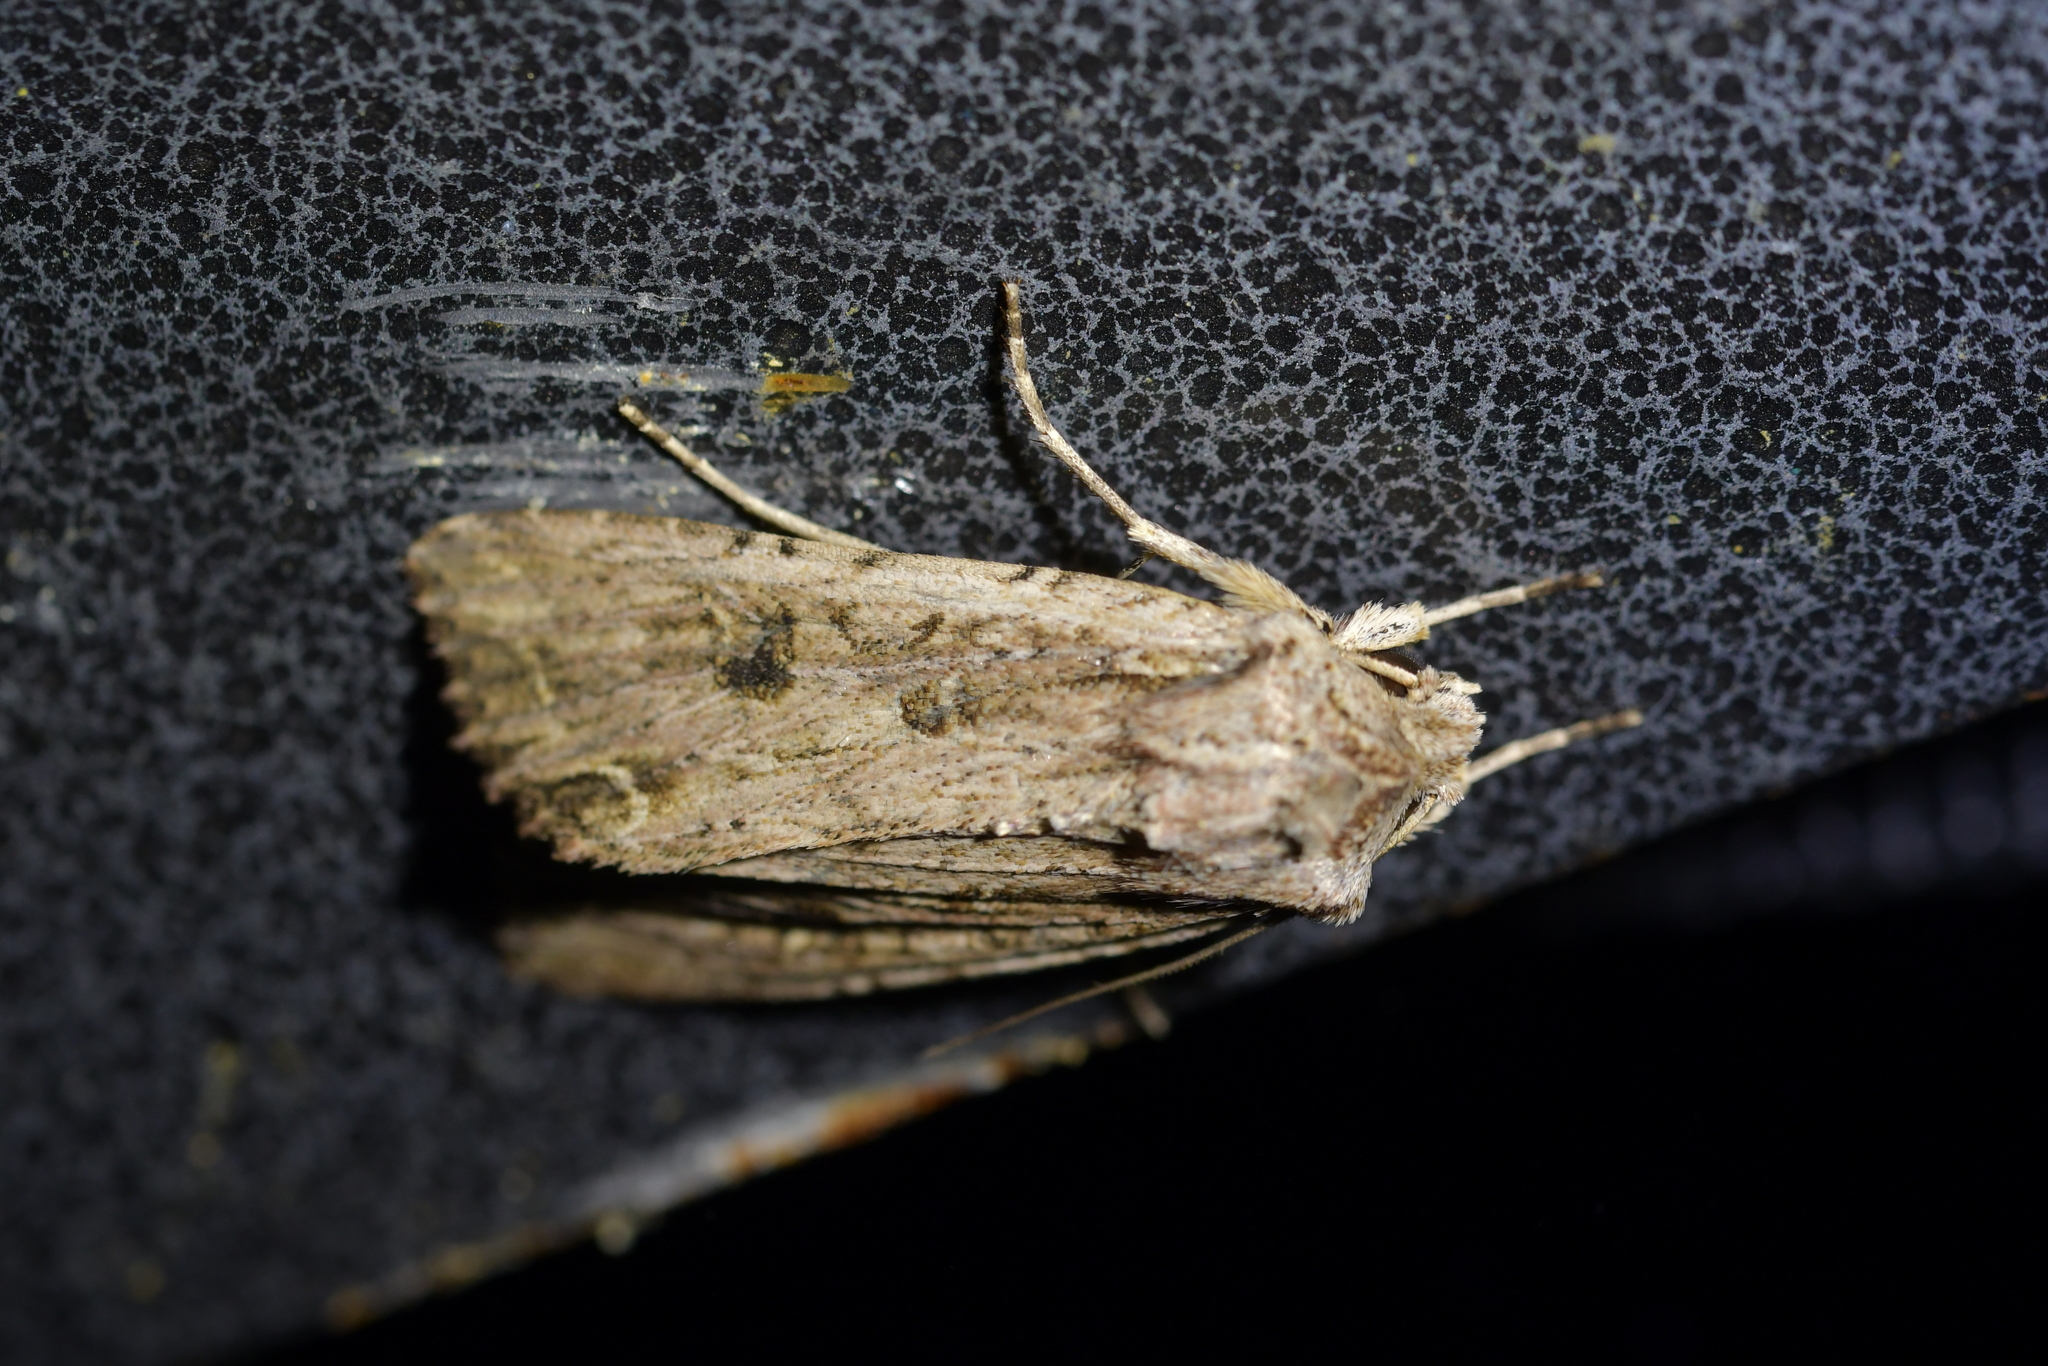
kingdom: Animalia
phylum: Arthropoda
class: Insecta
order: Lepidoptera
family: Noctuidae
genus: Ichneutica
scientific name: Ichneutica lignana
